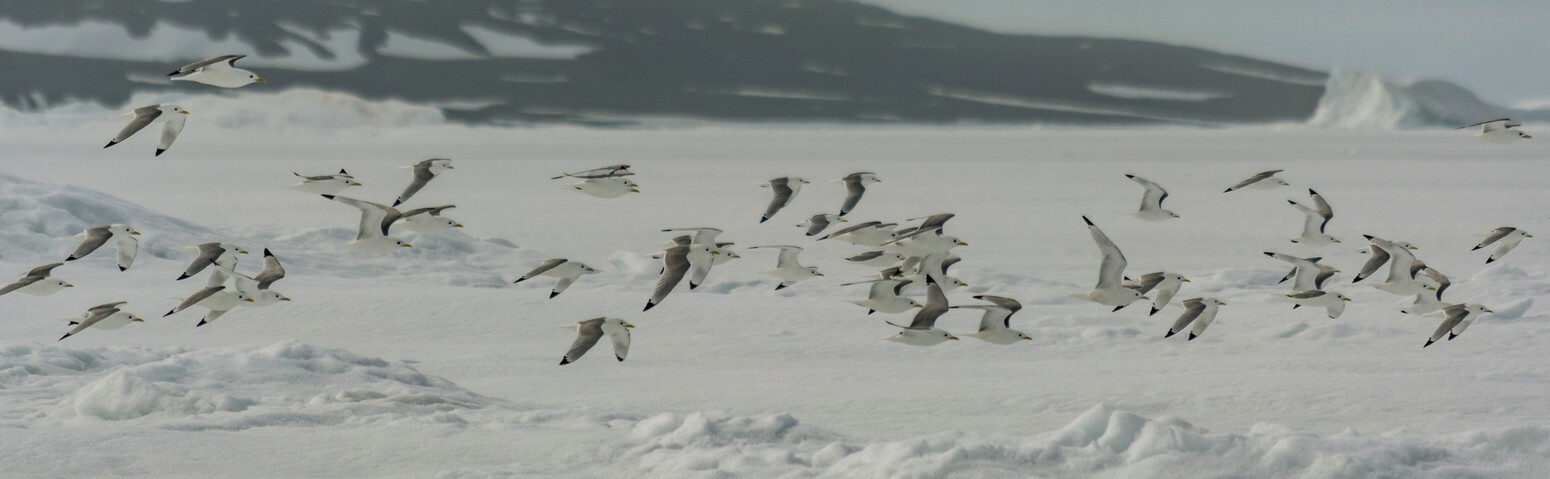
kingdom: Animalia
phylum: Chordata
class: Aves
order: Charadriiformes
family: Laridae
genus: Rissa
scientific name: Rissa tridactyla
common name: Black-legged kittiwake
